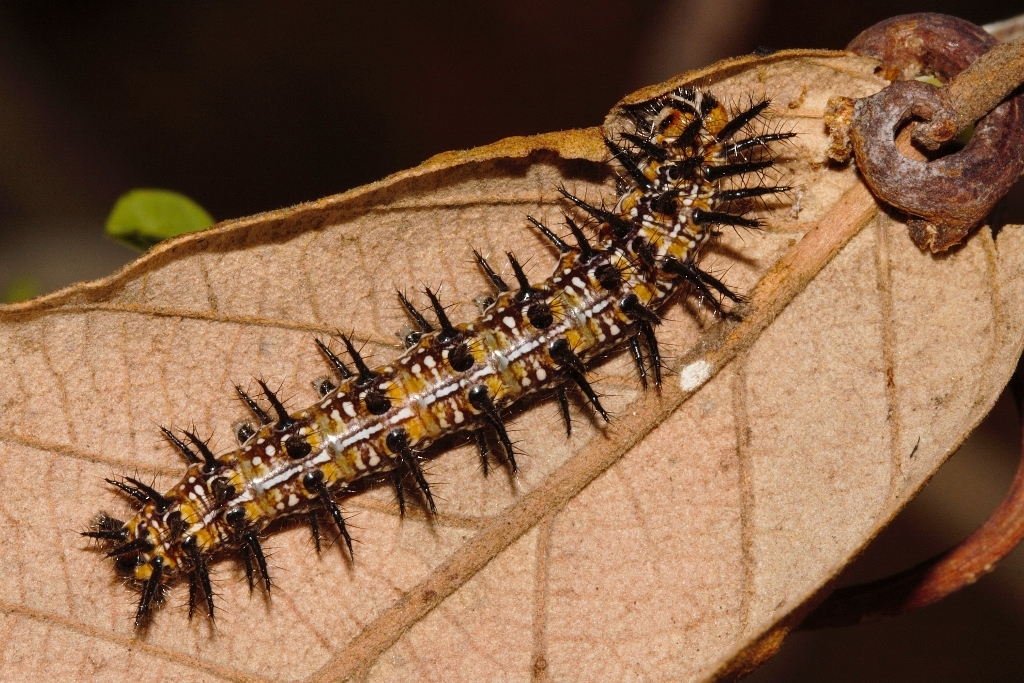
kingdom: Animalia
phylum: Arthropoda
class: Insecta
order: Lepidoptera
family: Nymphalidae
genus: Acraea
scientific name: Acraea Telchinia burni
